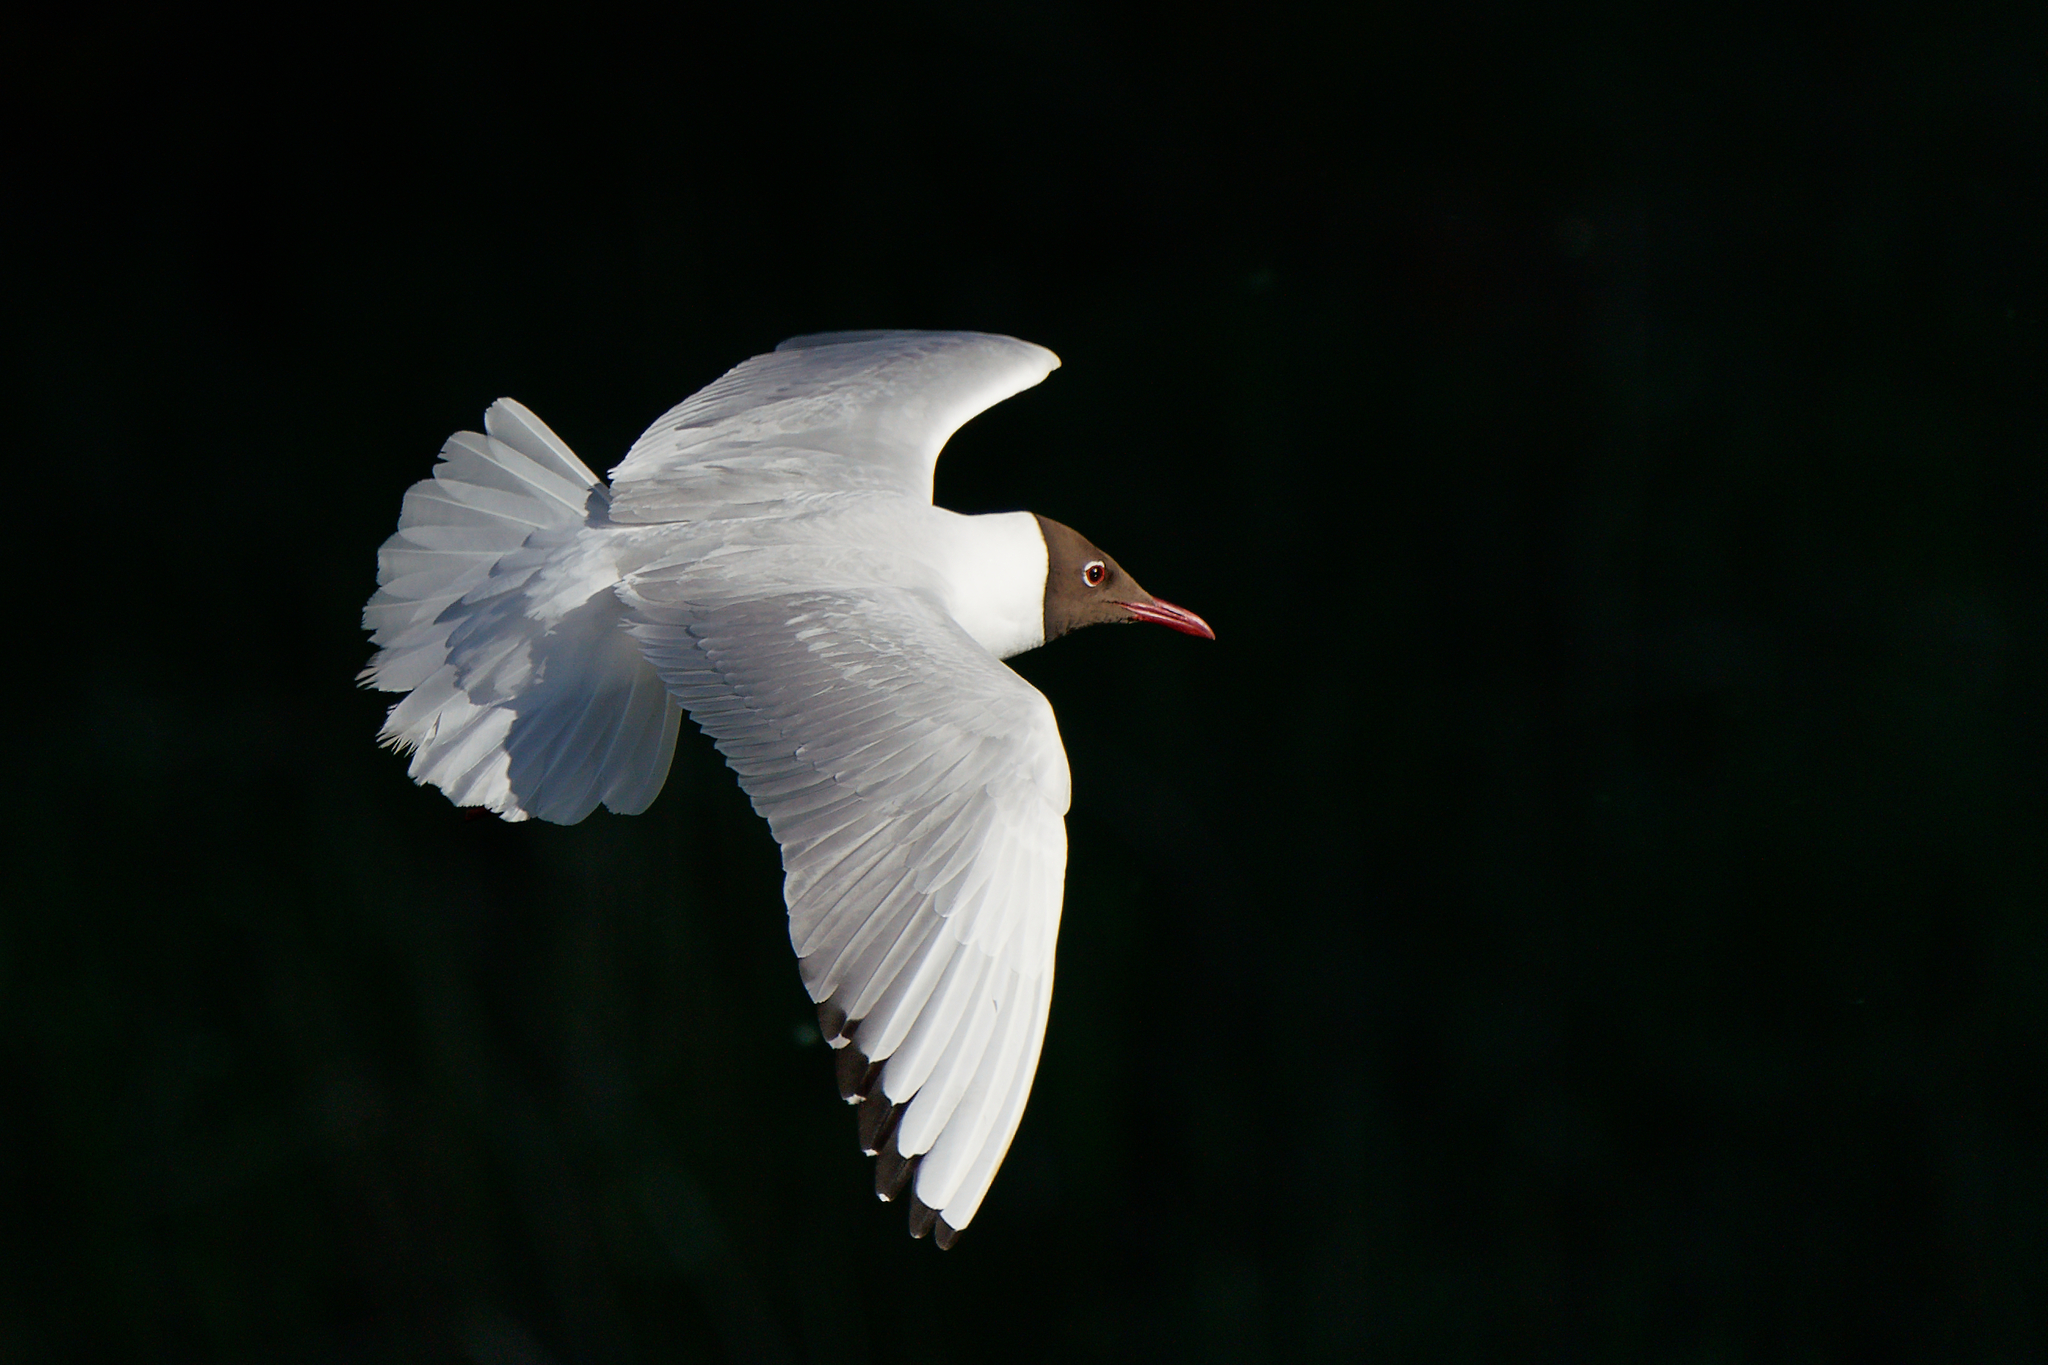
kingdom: Animalia
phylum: Chordata
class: Aves
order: Charadriiformes
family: Laridae
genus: Chroicocephalus
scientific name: Chroicocephalus ridibundus
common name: Black-headed gull
